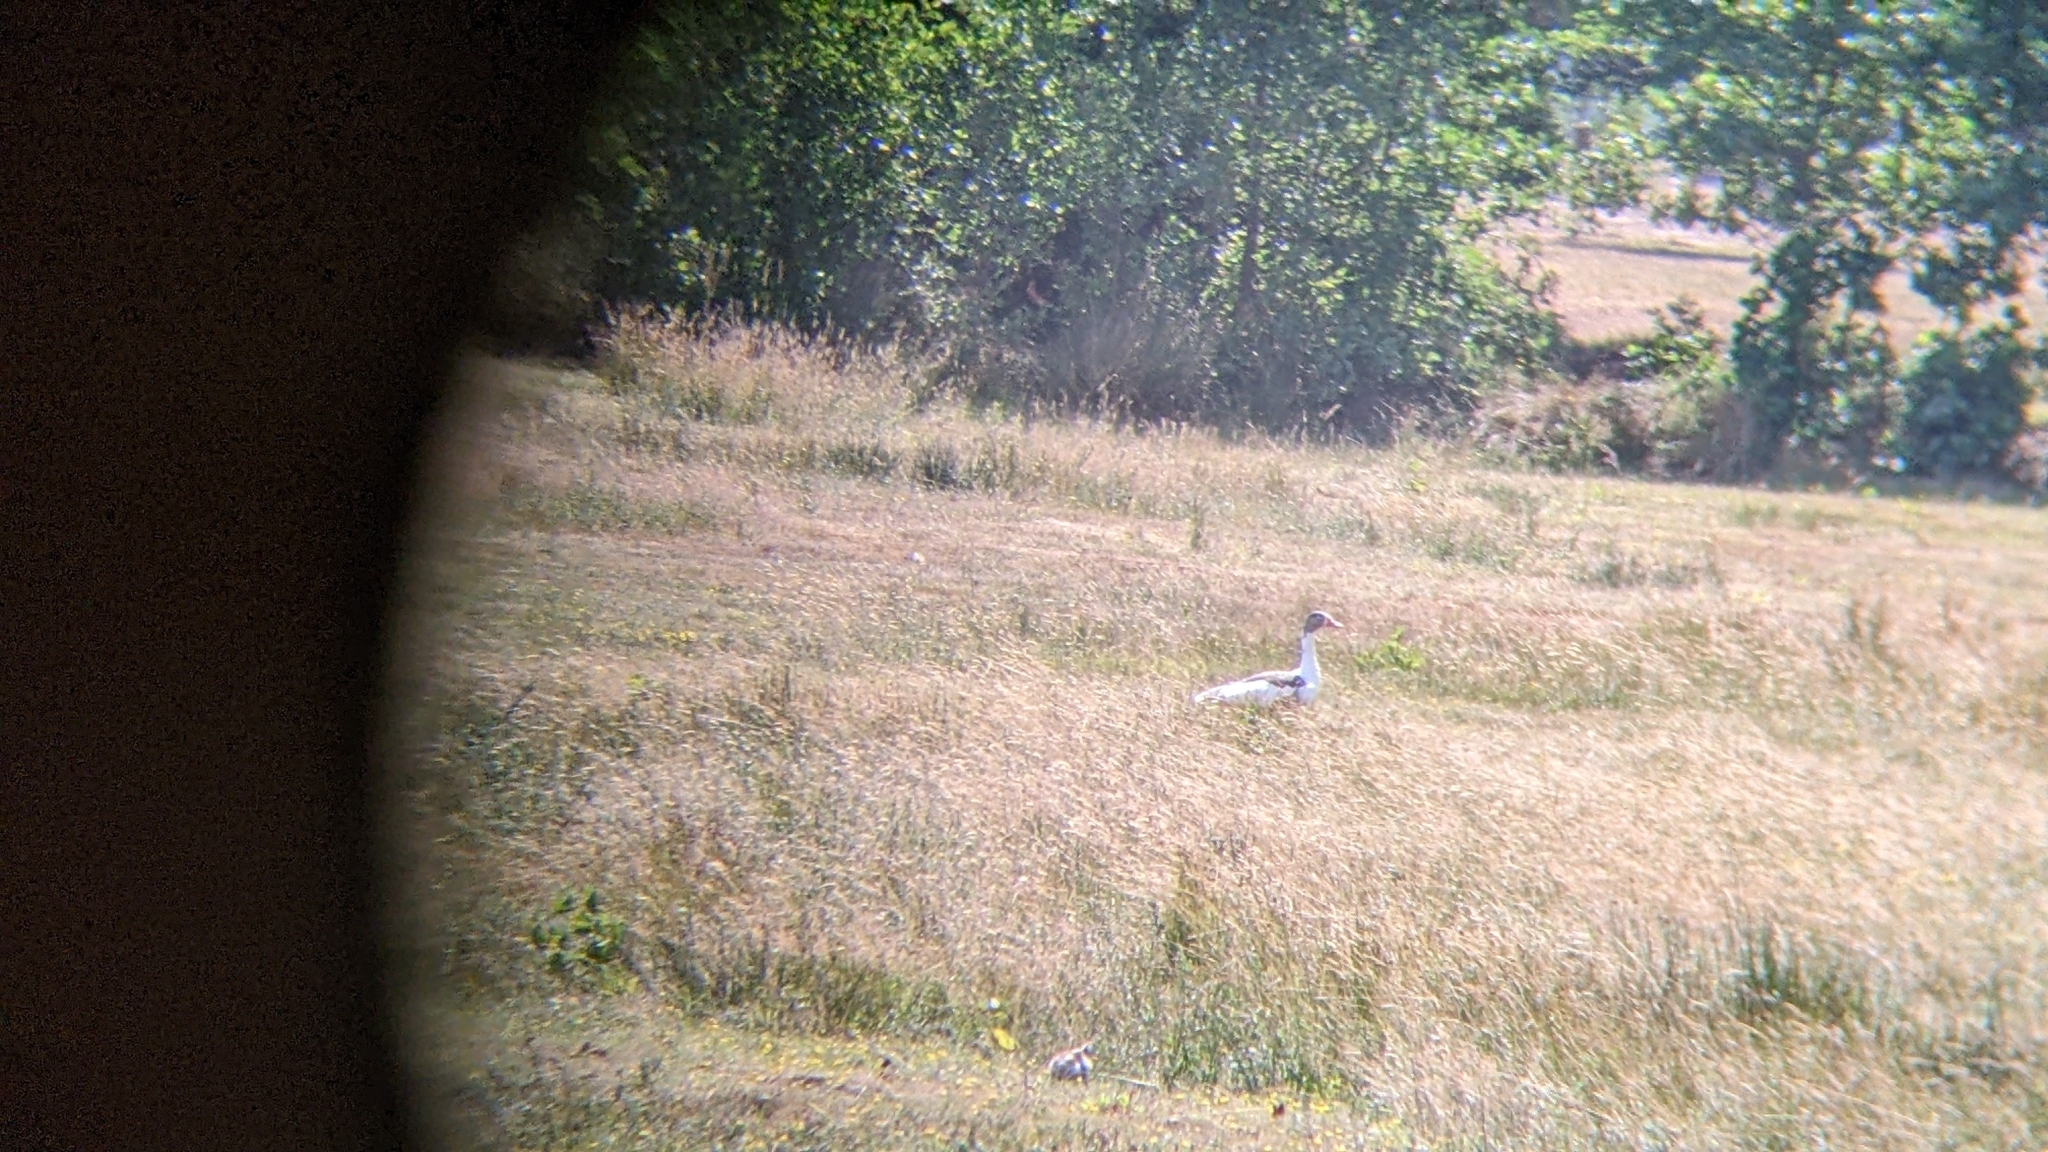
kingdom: Animalia
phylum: Chordata
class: Aves
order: Anseriformes
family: Anatidae
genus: Anser
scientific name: Anser anser
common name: Greylag goose
